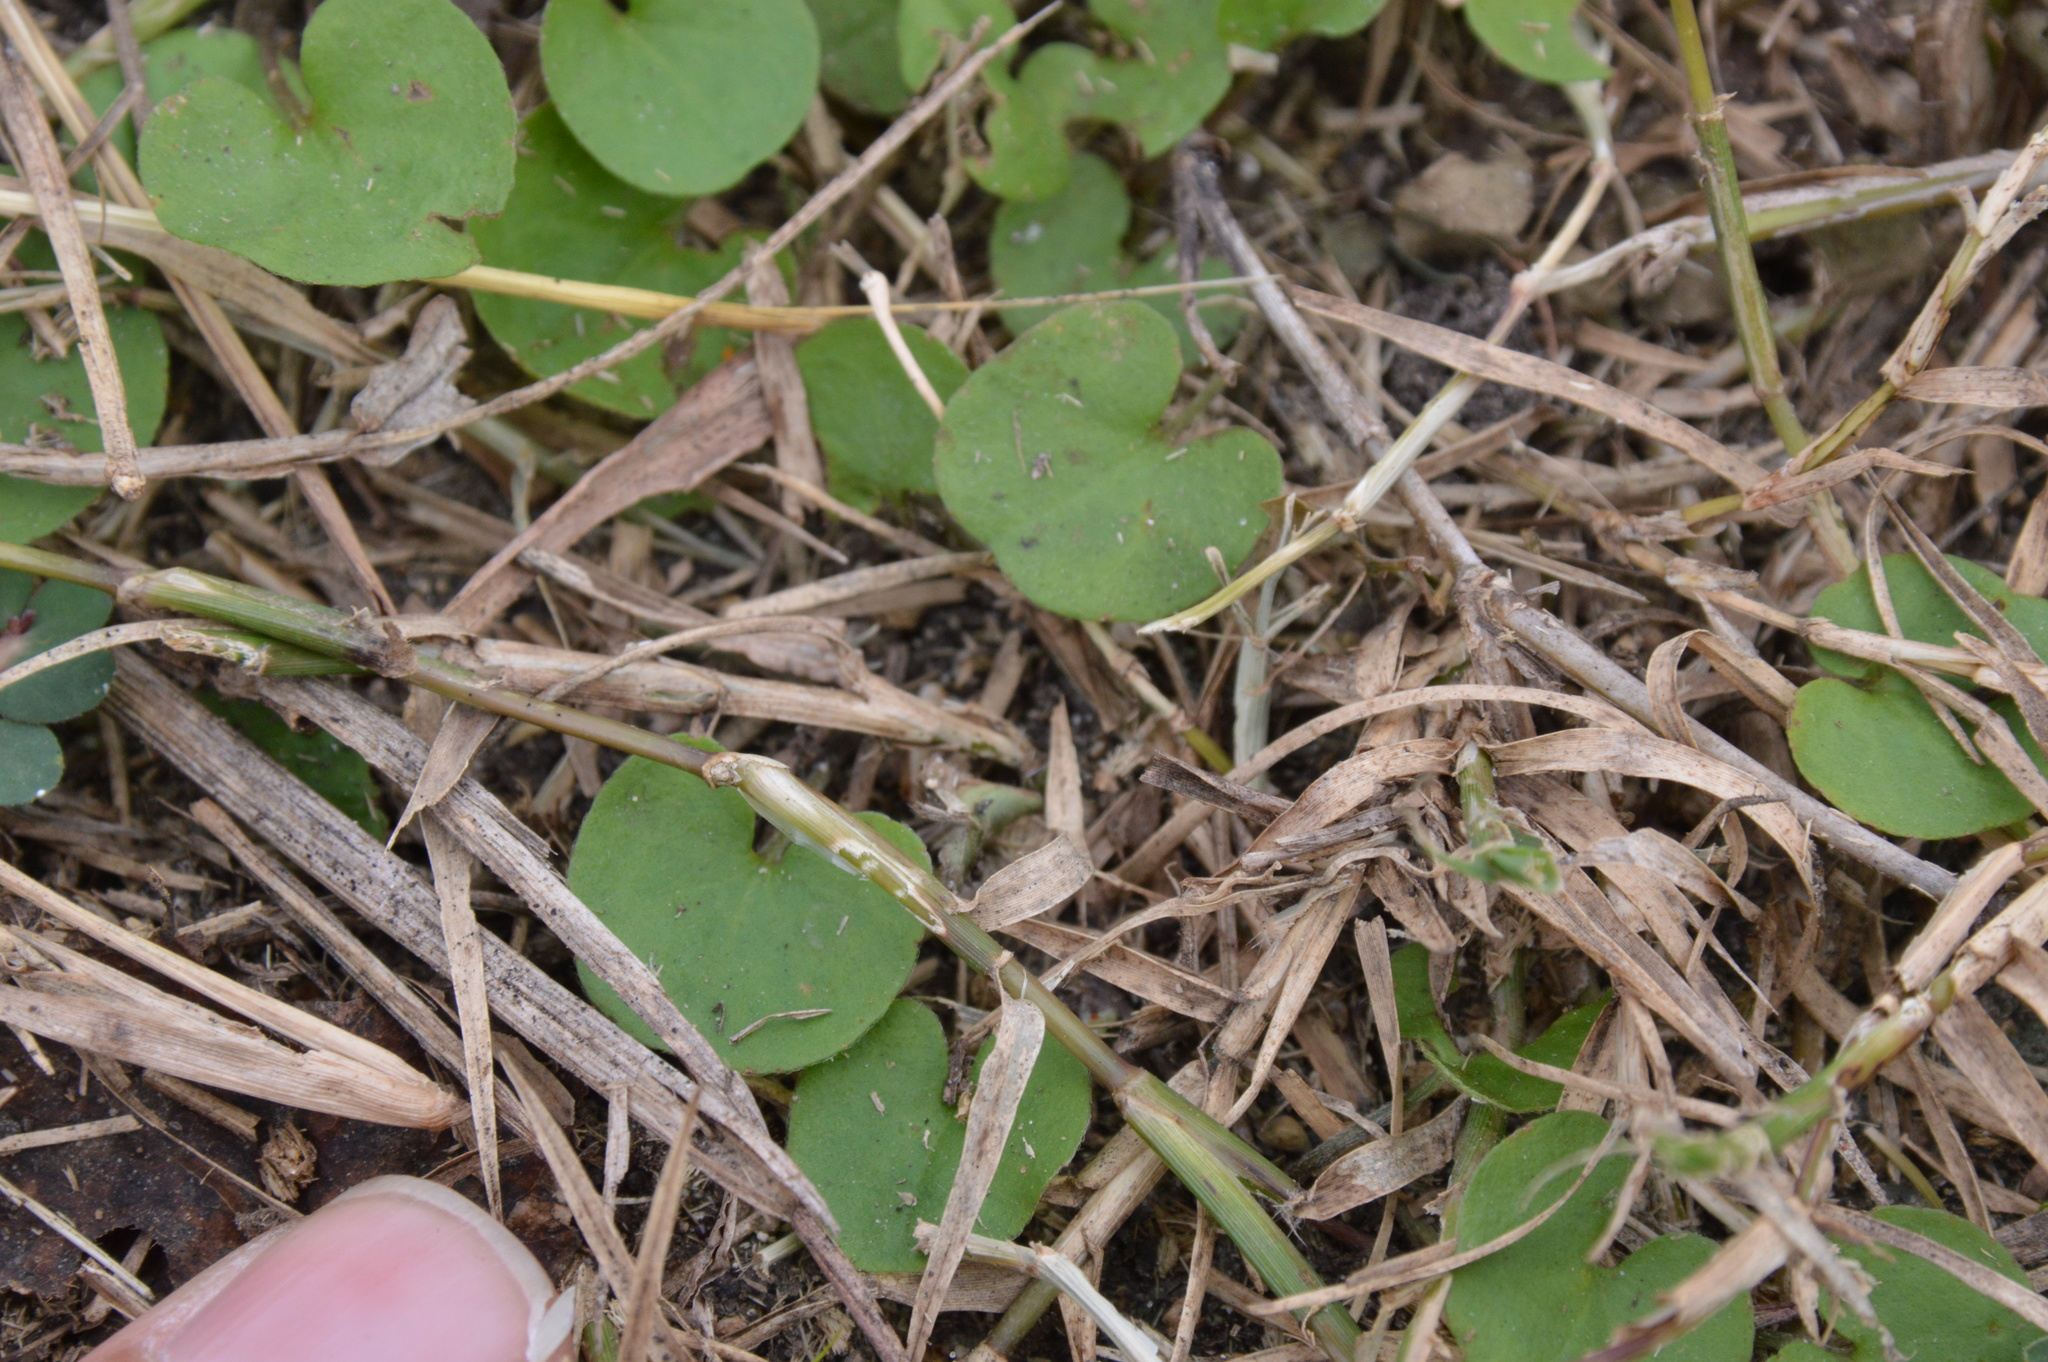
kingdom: Plantae
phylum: Tracheophyta
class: Magnoliopsida
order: Solanales
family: Convolvulaceae
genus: Dichondra
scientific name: Dichondra carolinensis
